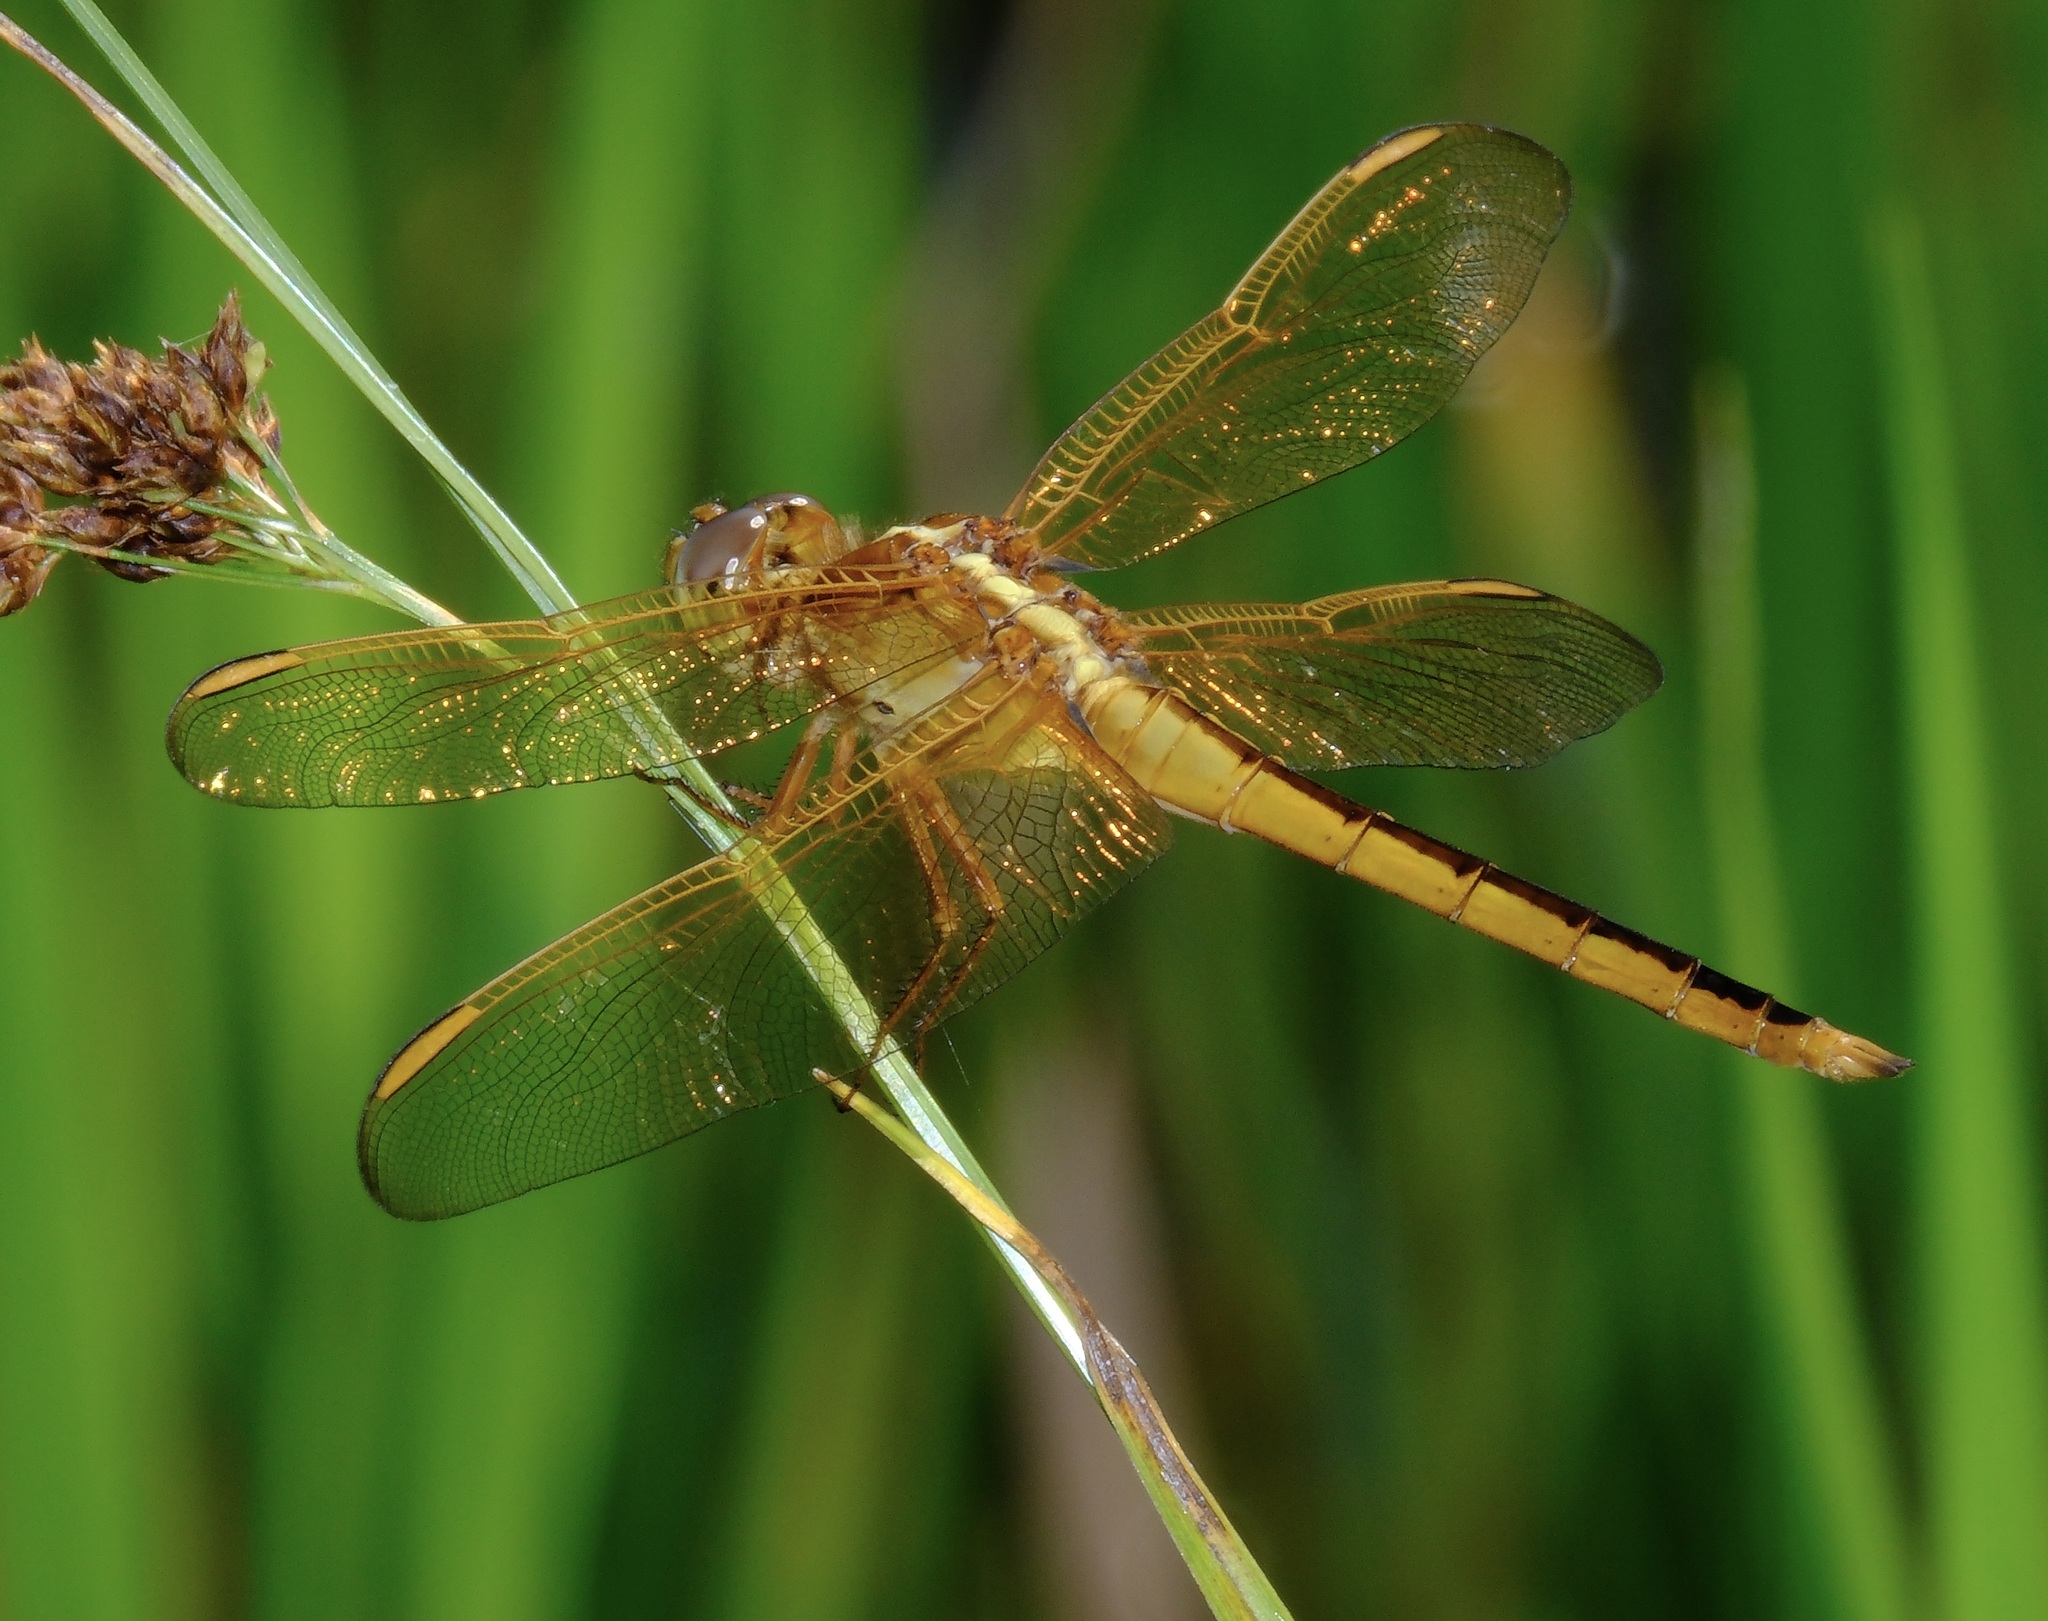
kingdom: Animalia
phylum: Arthropoda
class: Insecta
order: Odonata
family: Libellulidae
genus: Libellula
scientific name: Libellula needhami
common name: Needham's skimmer
